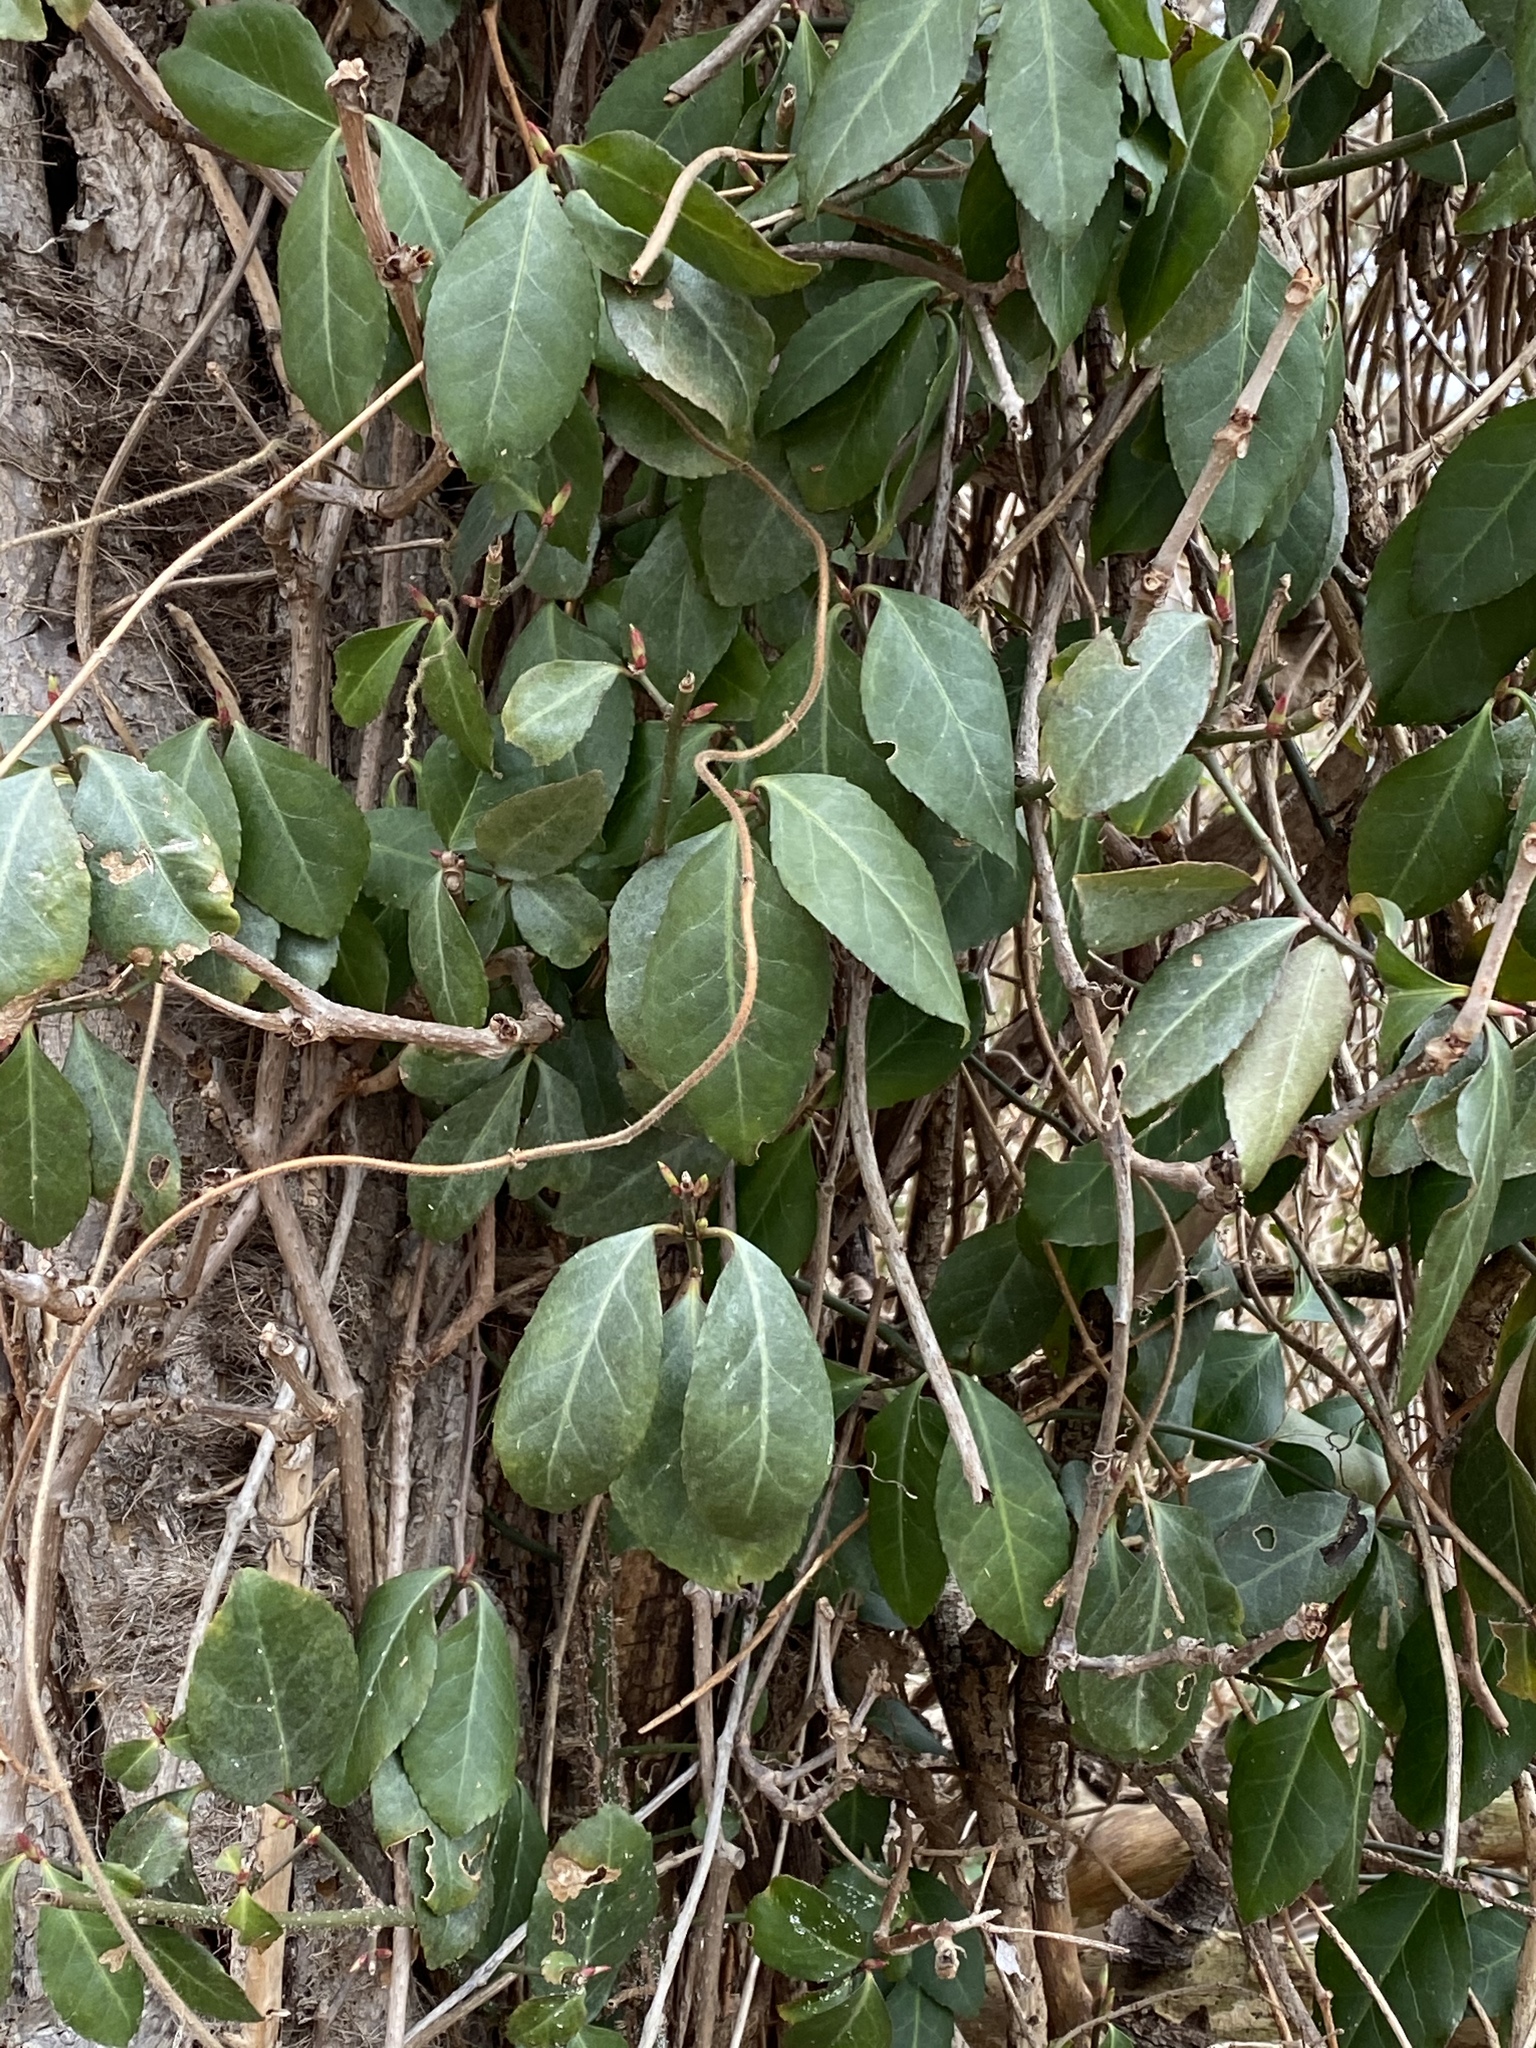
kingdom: Plantae
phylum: Tracheophyta
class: Magnoliopsida
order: Celastrales
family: Celastraceae
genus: Euonymus
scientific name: Euonymus fortunei
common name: Climbing euonymus
